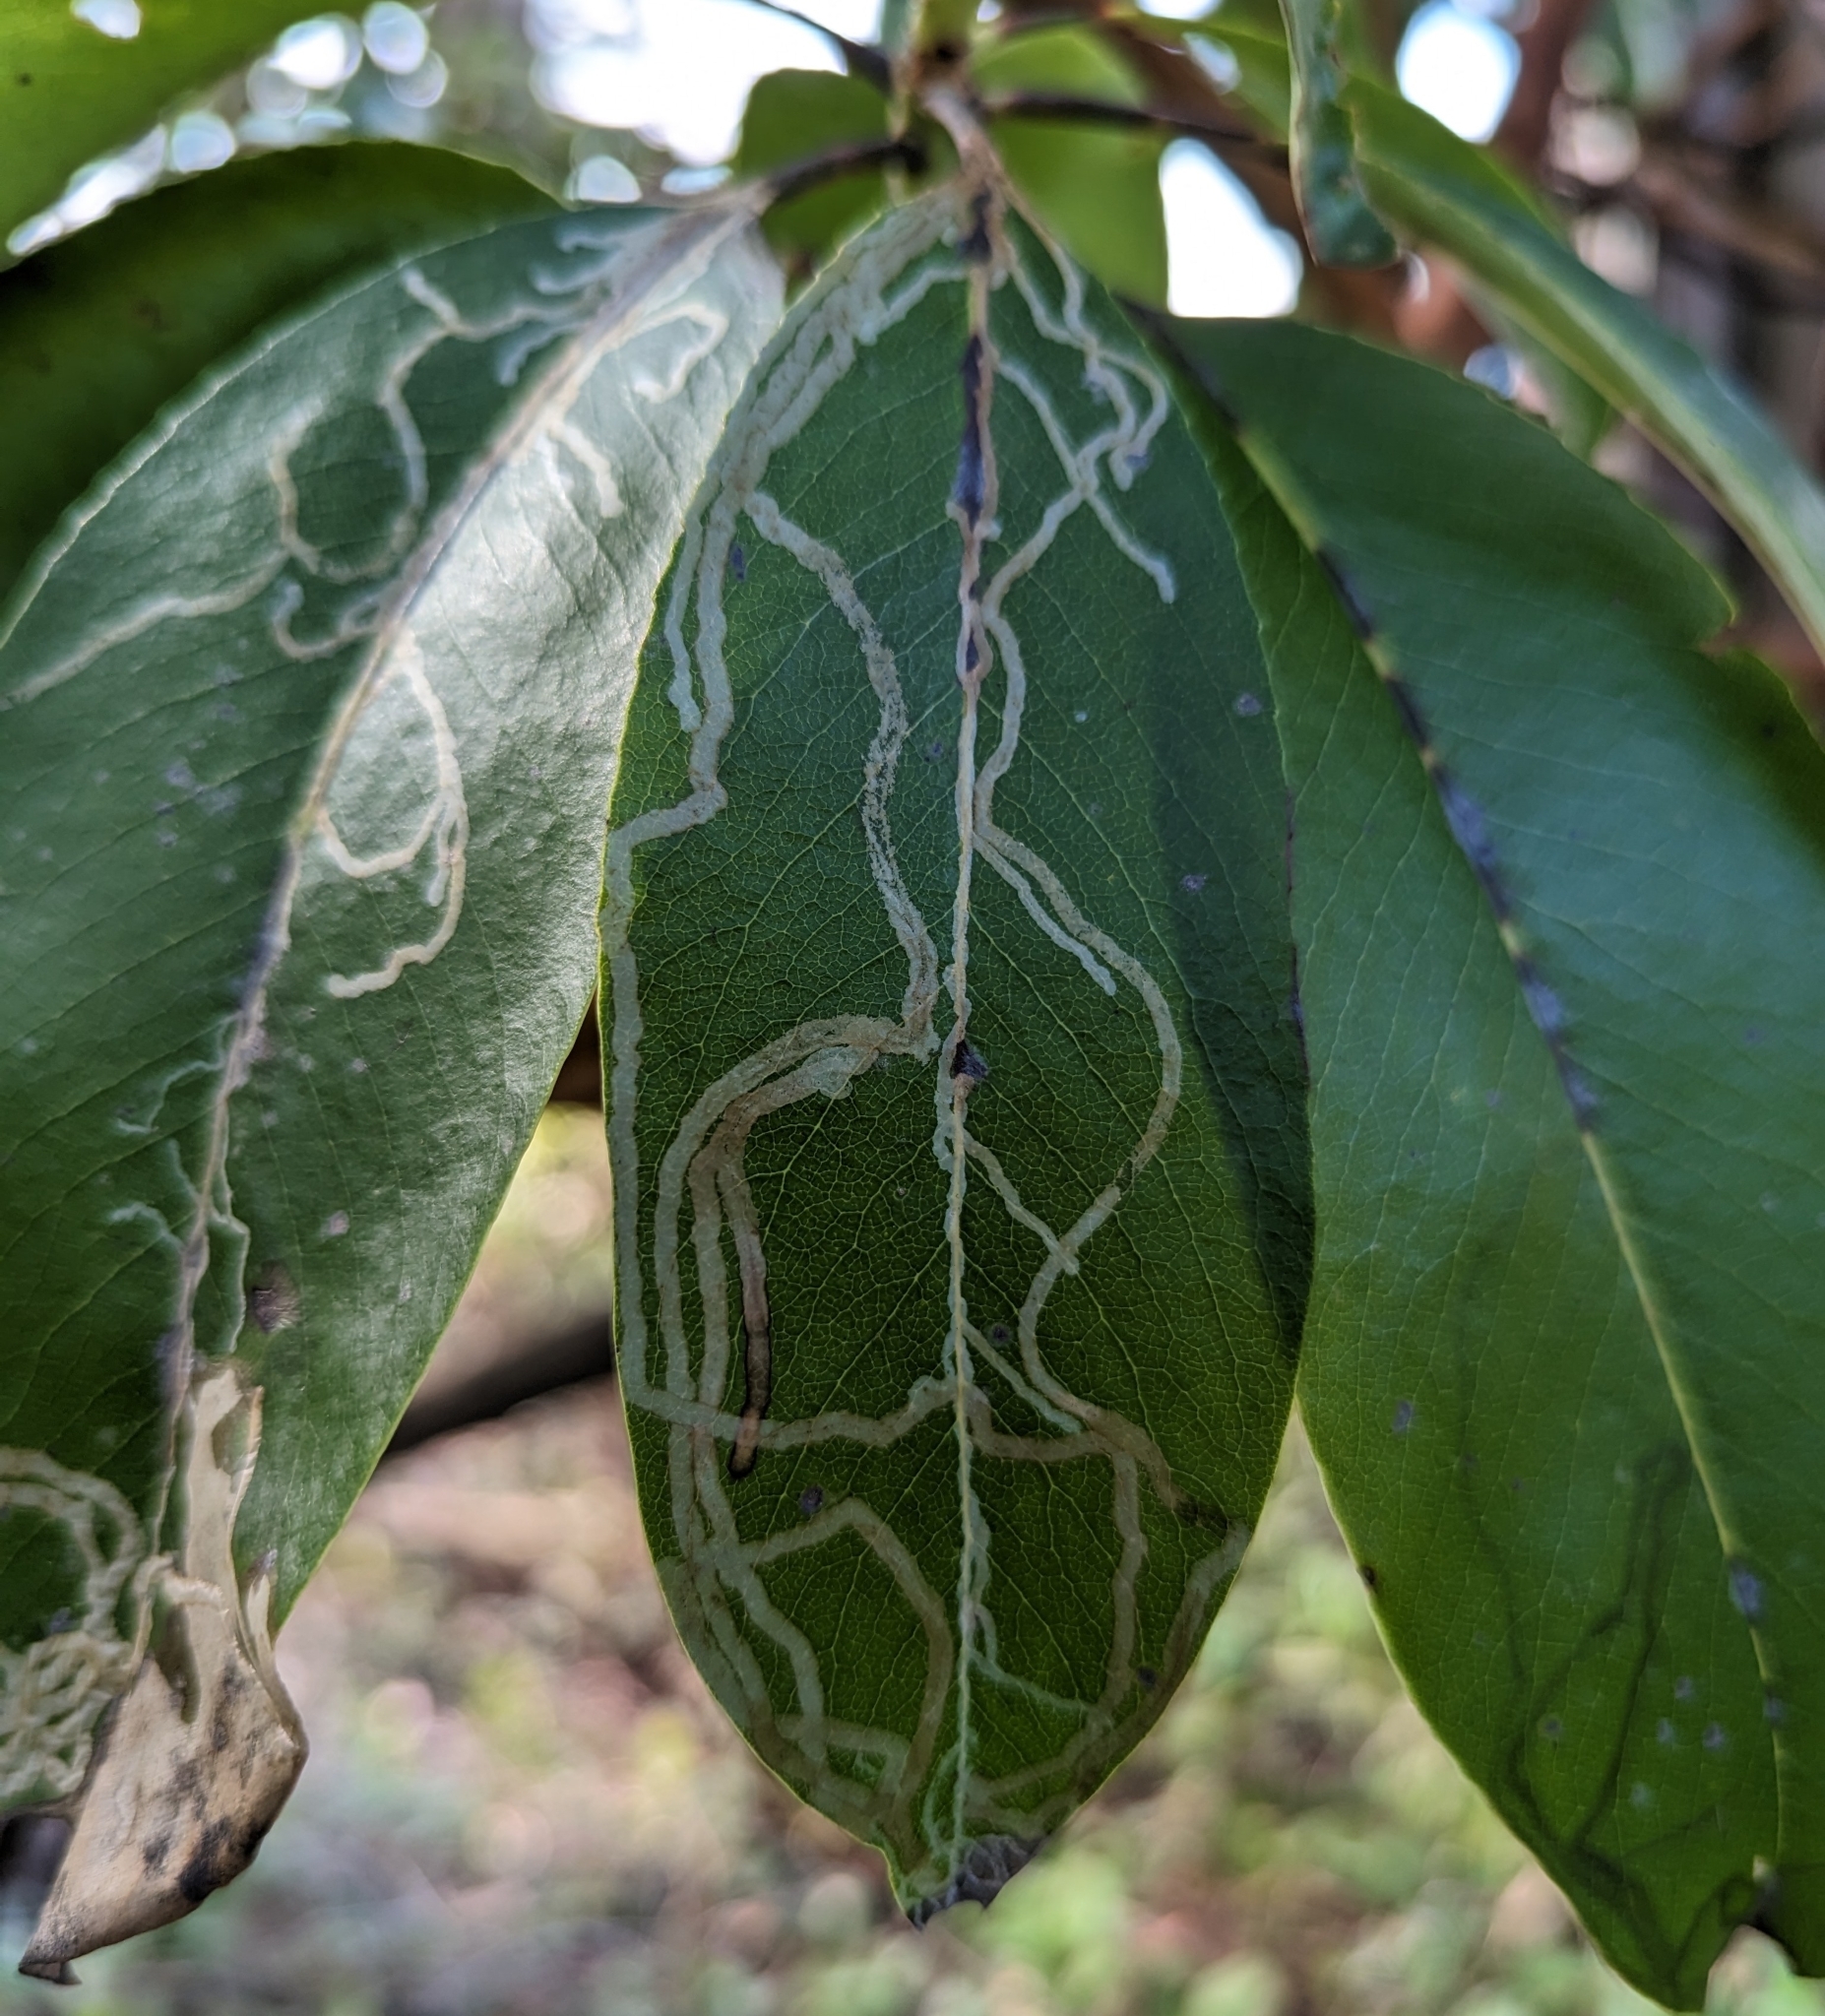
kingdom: Animalia
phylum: Arthropoda
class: Insecta
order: Lepidoptera
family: Gracillariidae
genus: Marmara
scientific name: Marmara arbutiella
